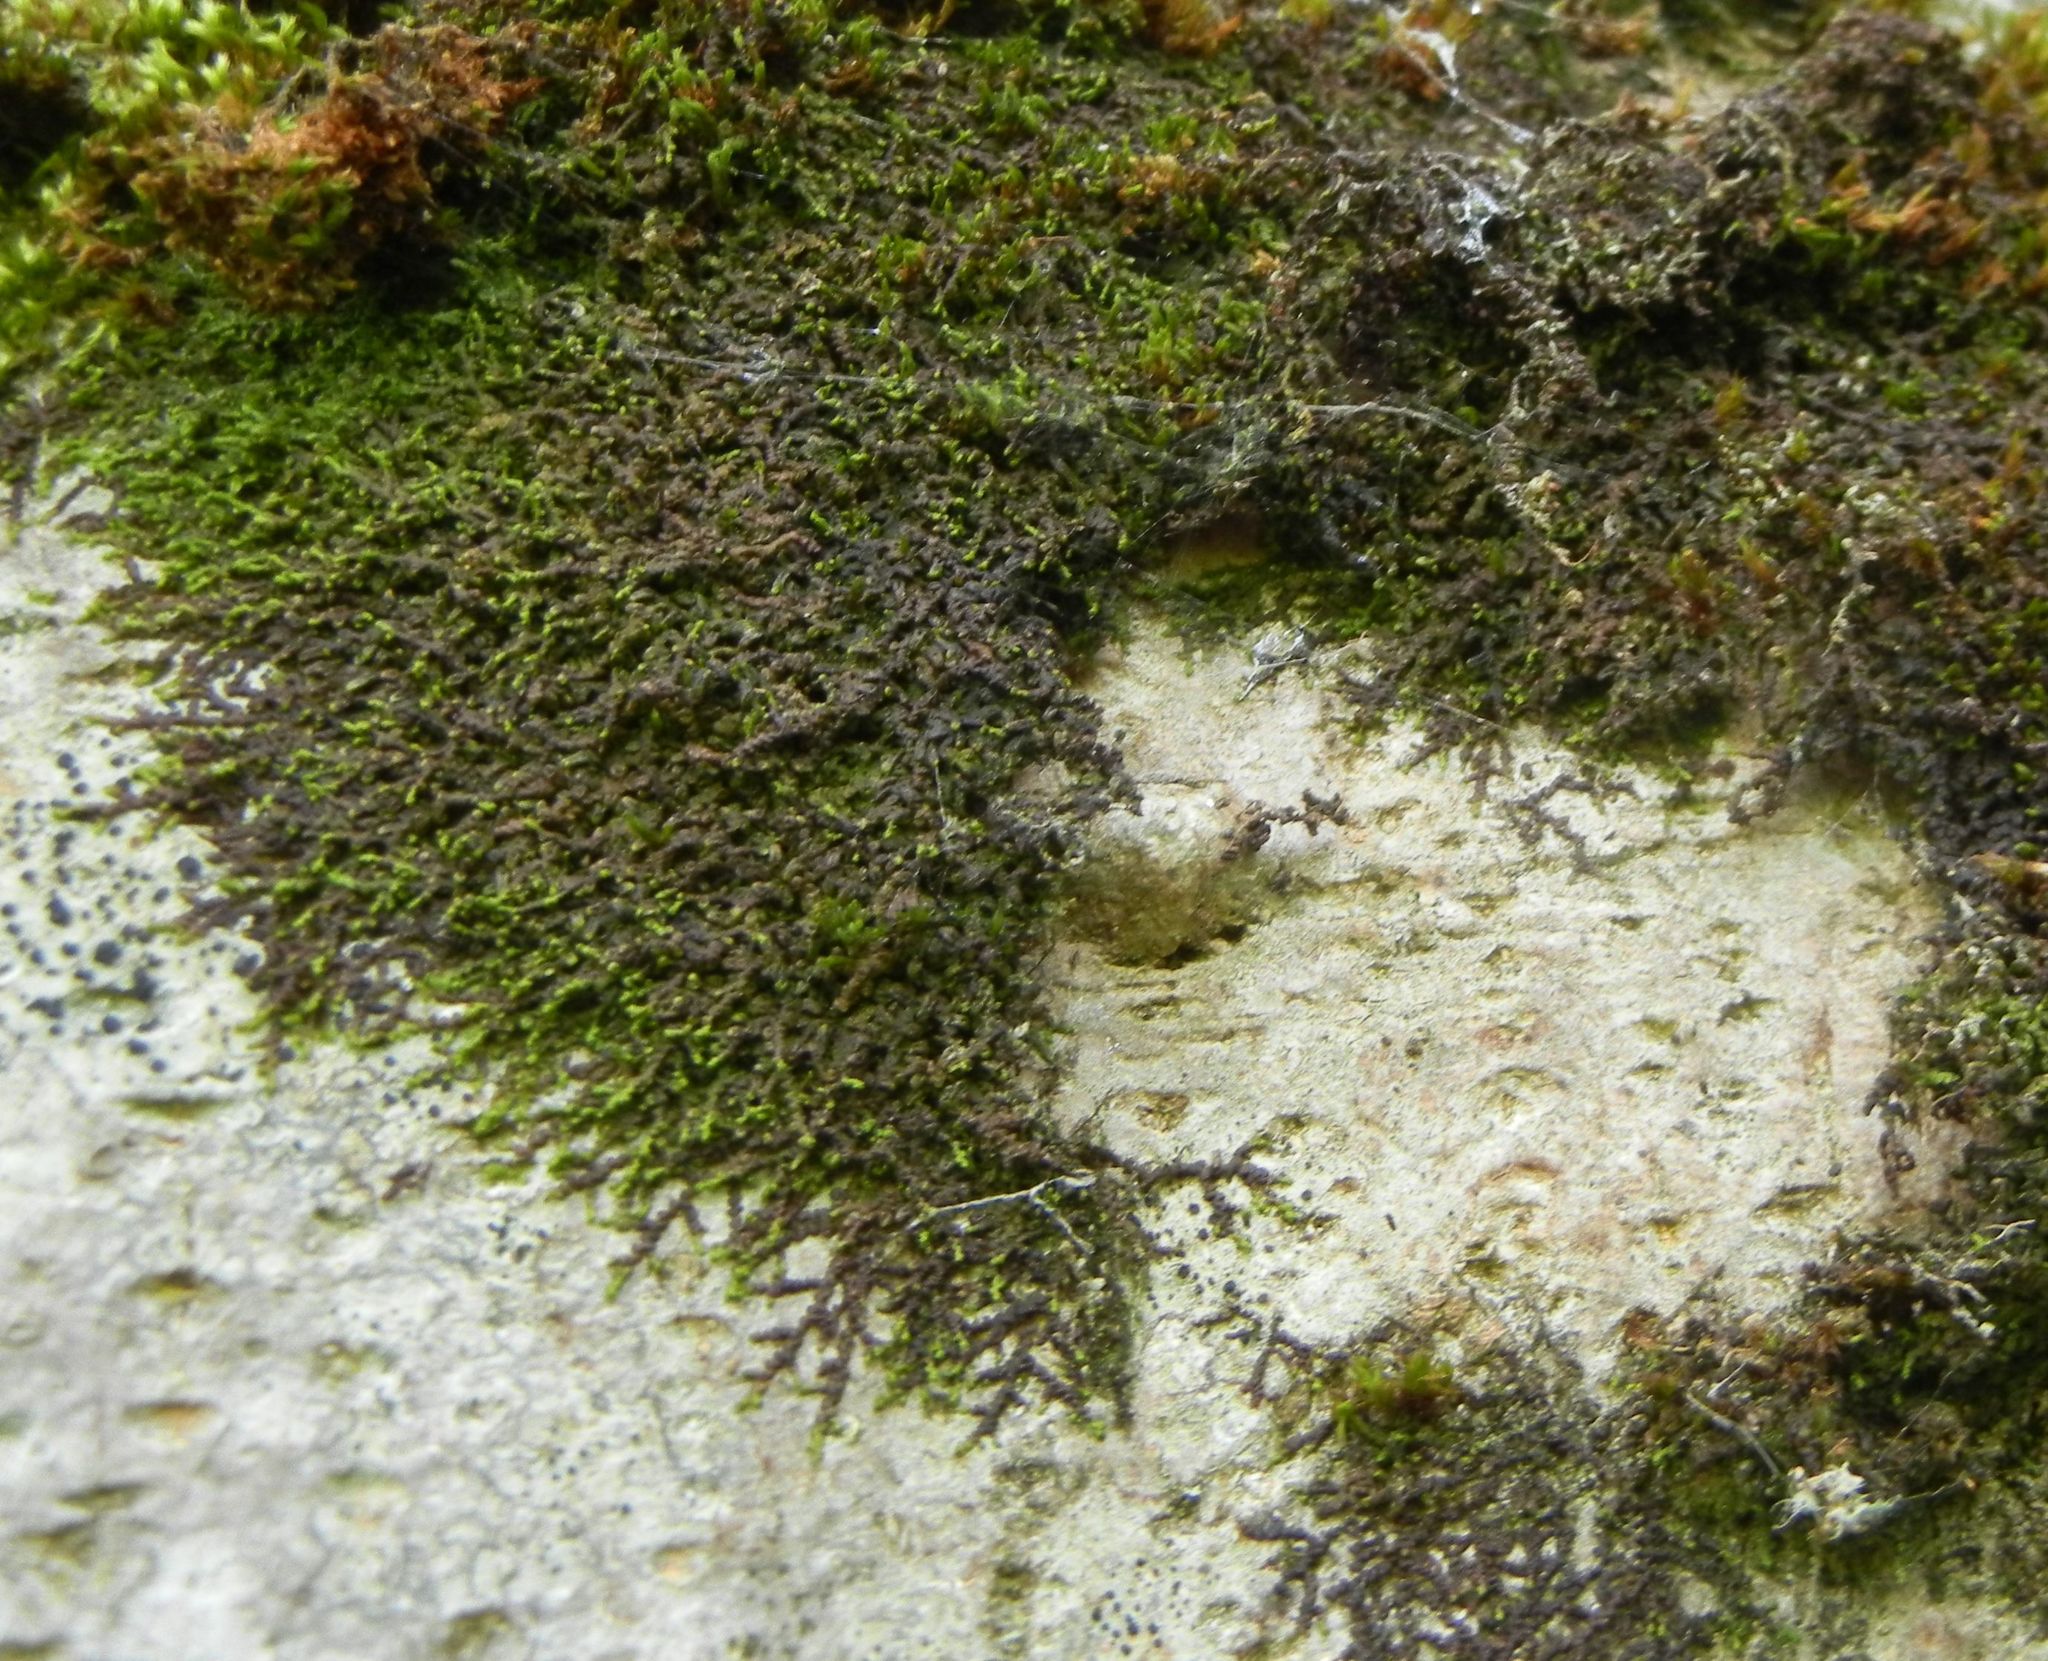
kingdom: Plantae
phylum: Marchantiophyta
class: Jungermanniopsida
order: Porellales
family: Frullaniaceae
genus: Frullania
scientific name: Frullania dilatata
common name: Dilated scalewort
